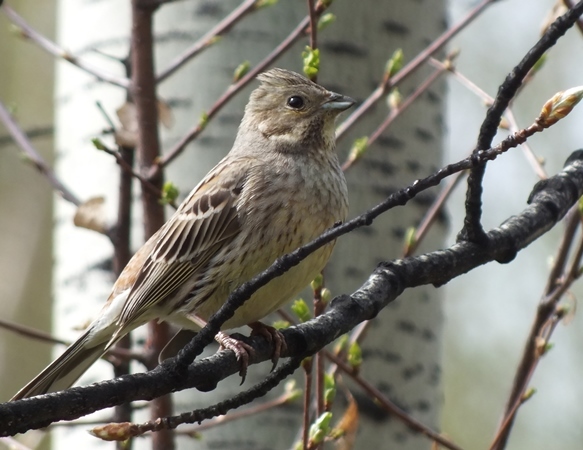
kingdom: Animalia
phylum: Chordata
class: Aves
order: Passeriformes
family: Emberizidae
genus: Emberiza
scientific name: Emberiza citrinella
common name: Yellowhammer
